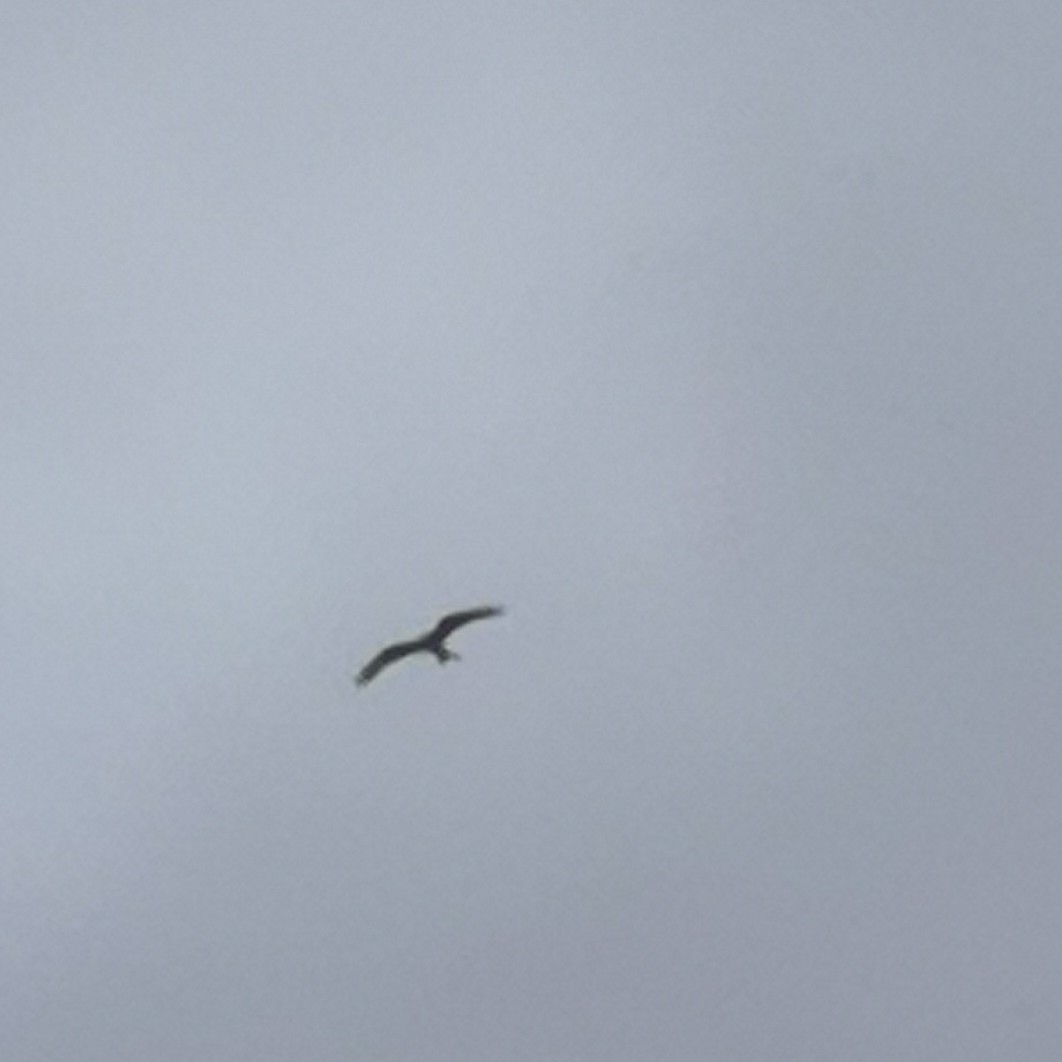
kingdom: Animalia
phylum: Chordata
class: Aves
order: Accipitriformes
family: Accipitridae
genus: Milvus
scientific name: Milvus milvus
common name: Red kite
